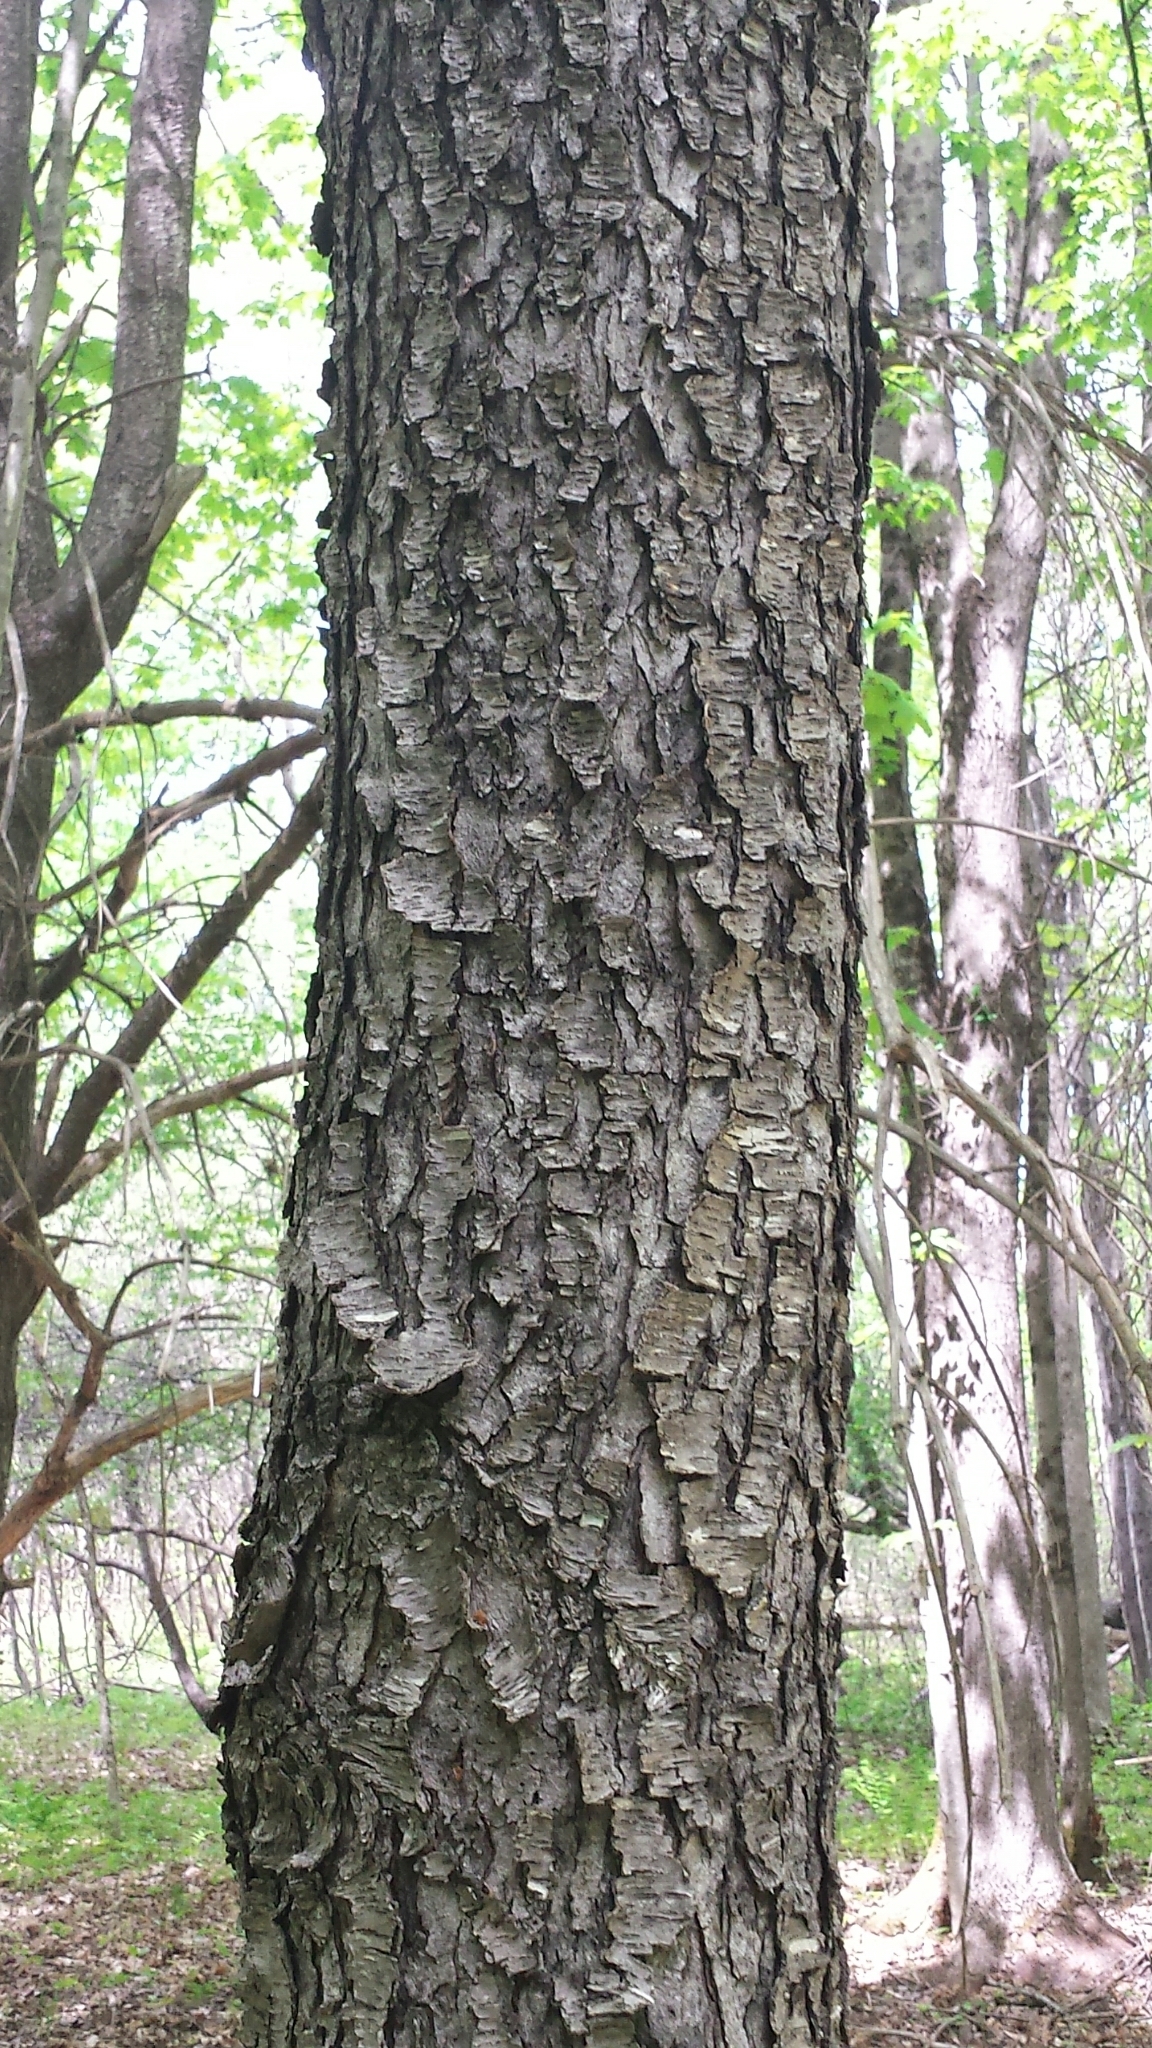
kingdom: Plantae
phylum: Tracheophyta
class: Magnoliopsida
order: Rosales
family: Rosaceae
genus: Prunus
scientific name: Prunus serotina
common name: Black cherry
